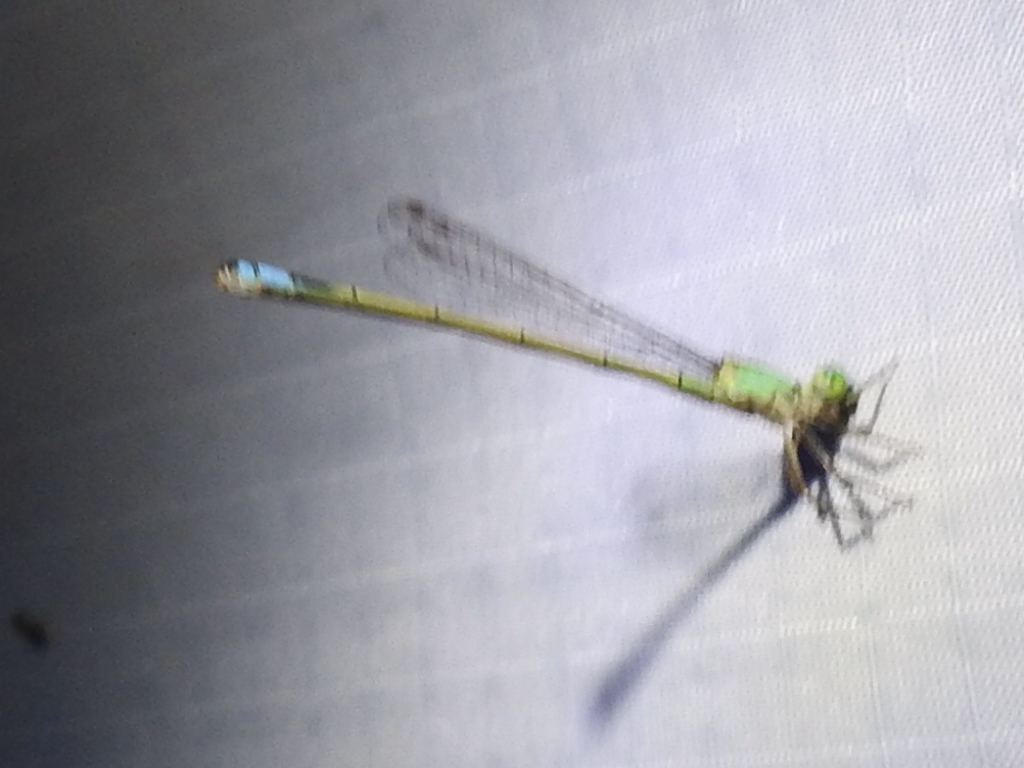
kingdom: Animalia
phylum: Arthropoda
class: Insecta
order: Odonata
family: Coenagrionidae
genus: Ischnura
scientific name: Ischnura ramburii
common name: Rambur's forktail
